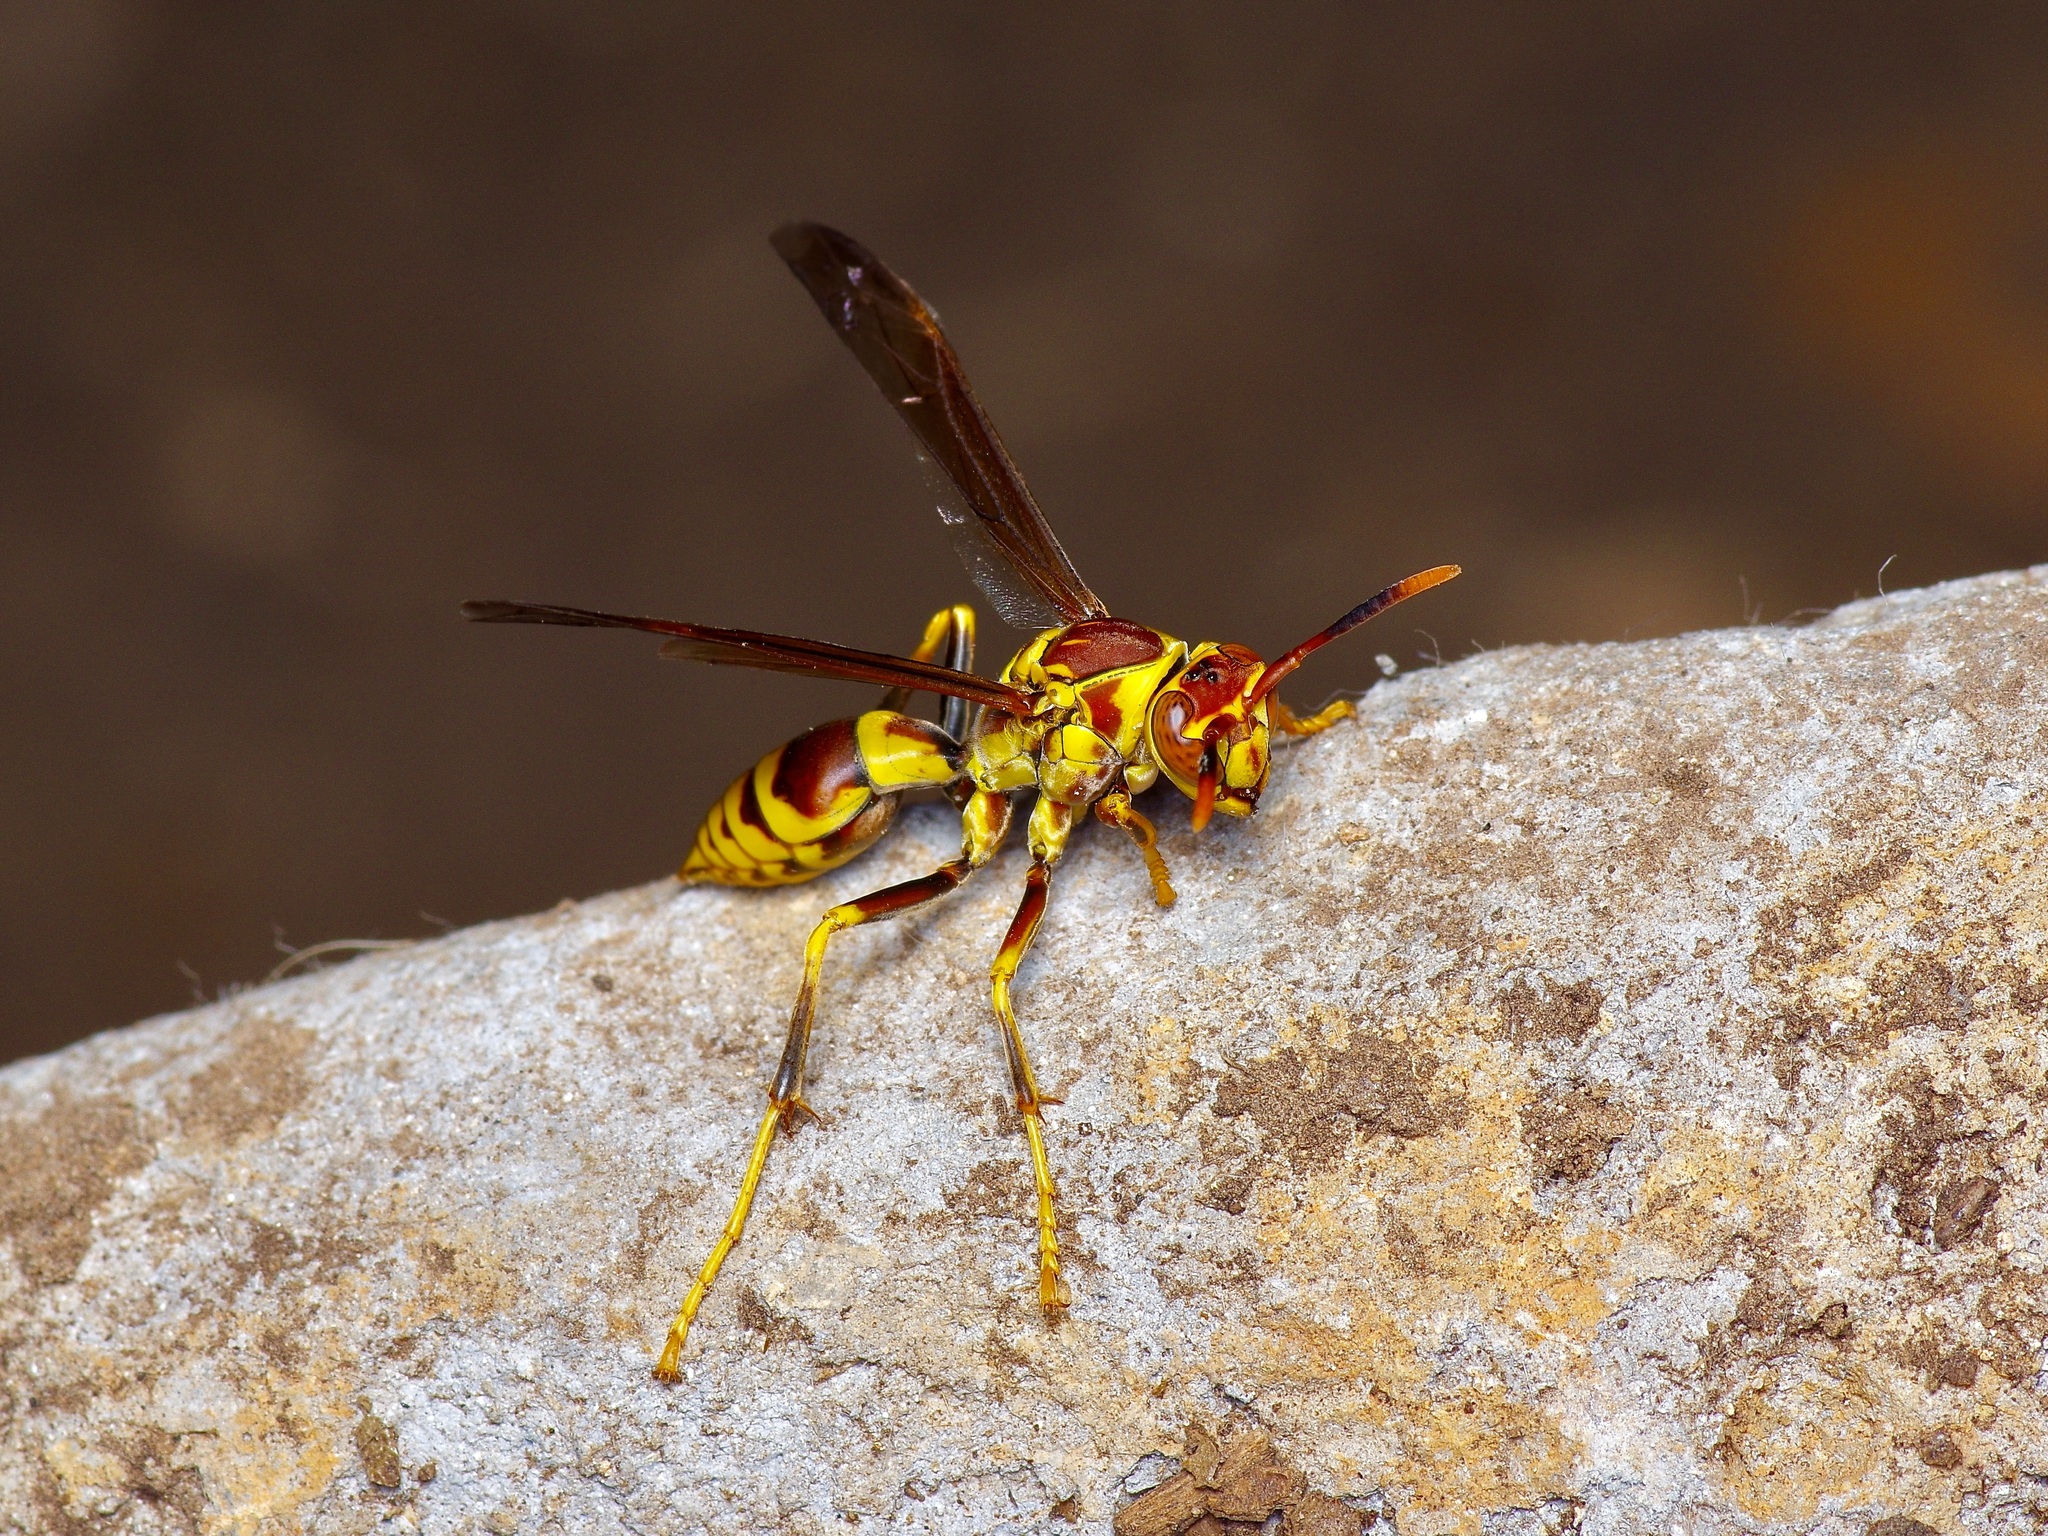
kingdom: Animalia
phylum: Arthropoda
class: Insecta
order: Hymenoptera
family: Eumenidae
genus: Polistes
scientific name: Polistes exclamans
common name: Paper wasp
